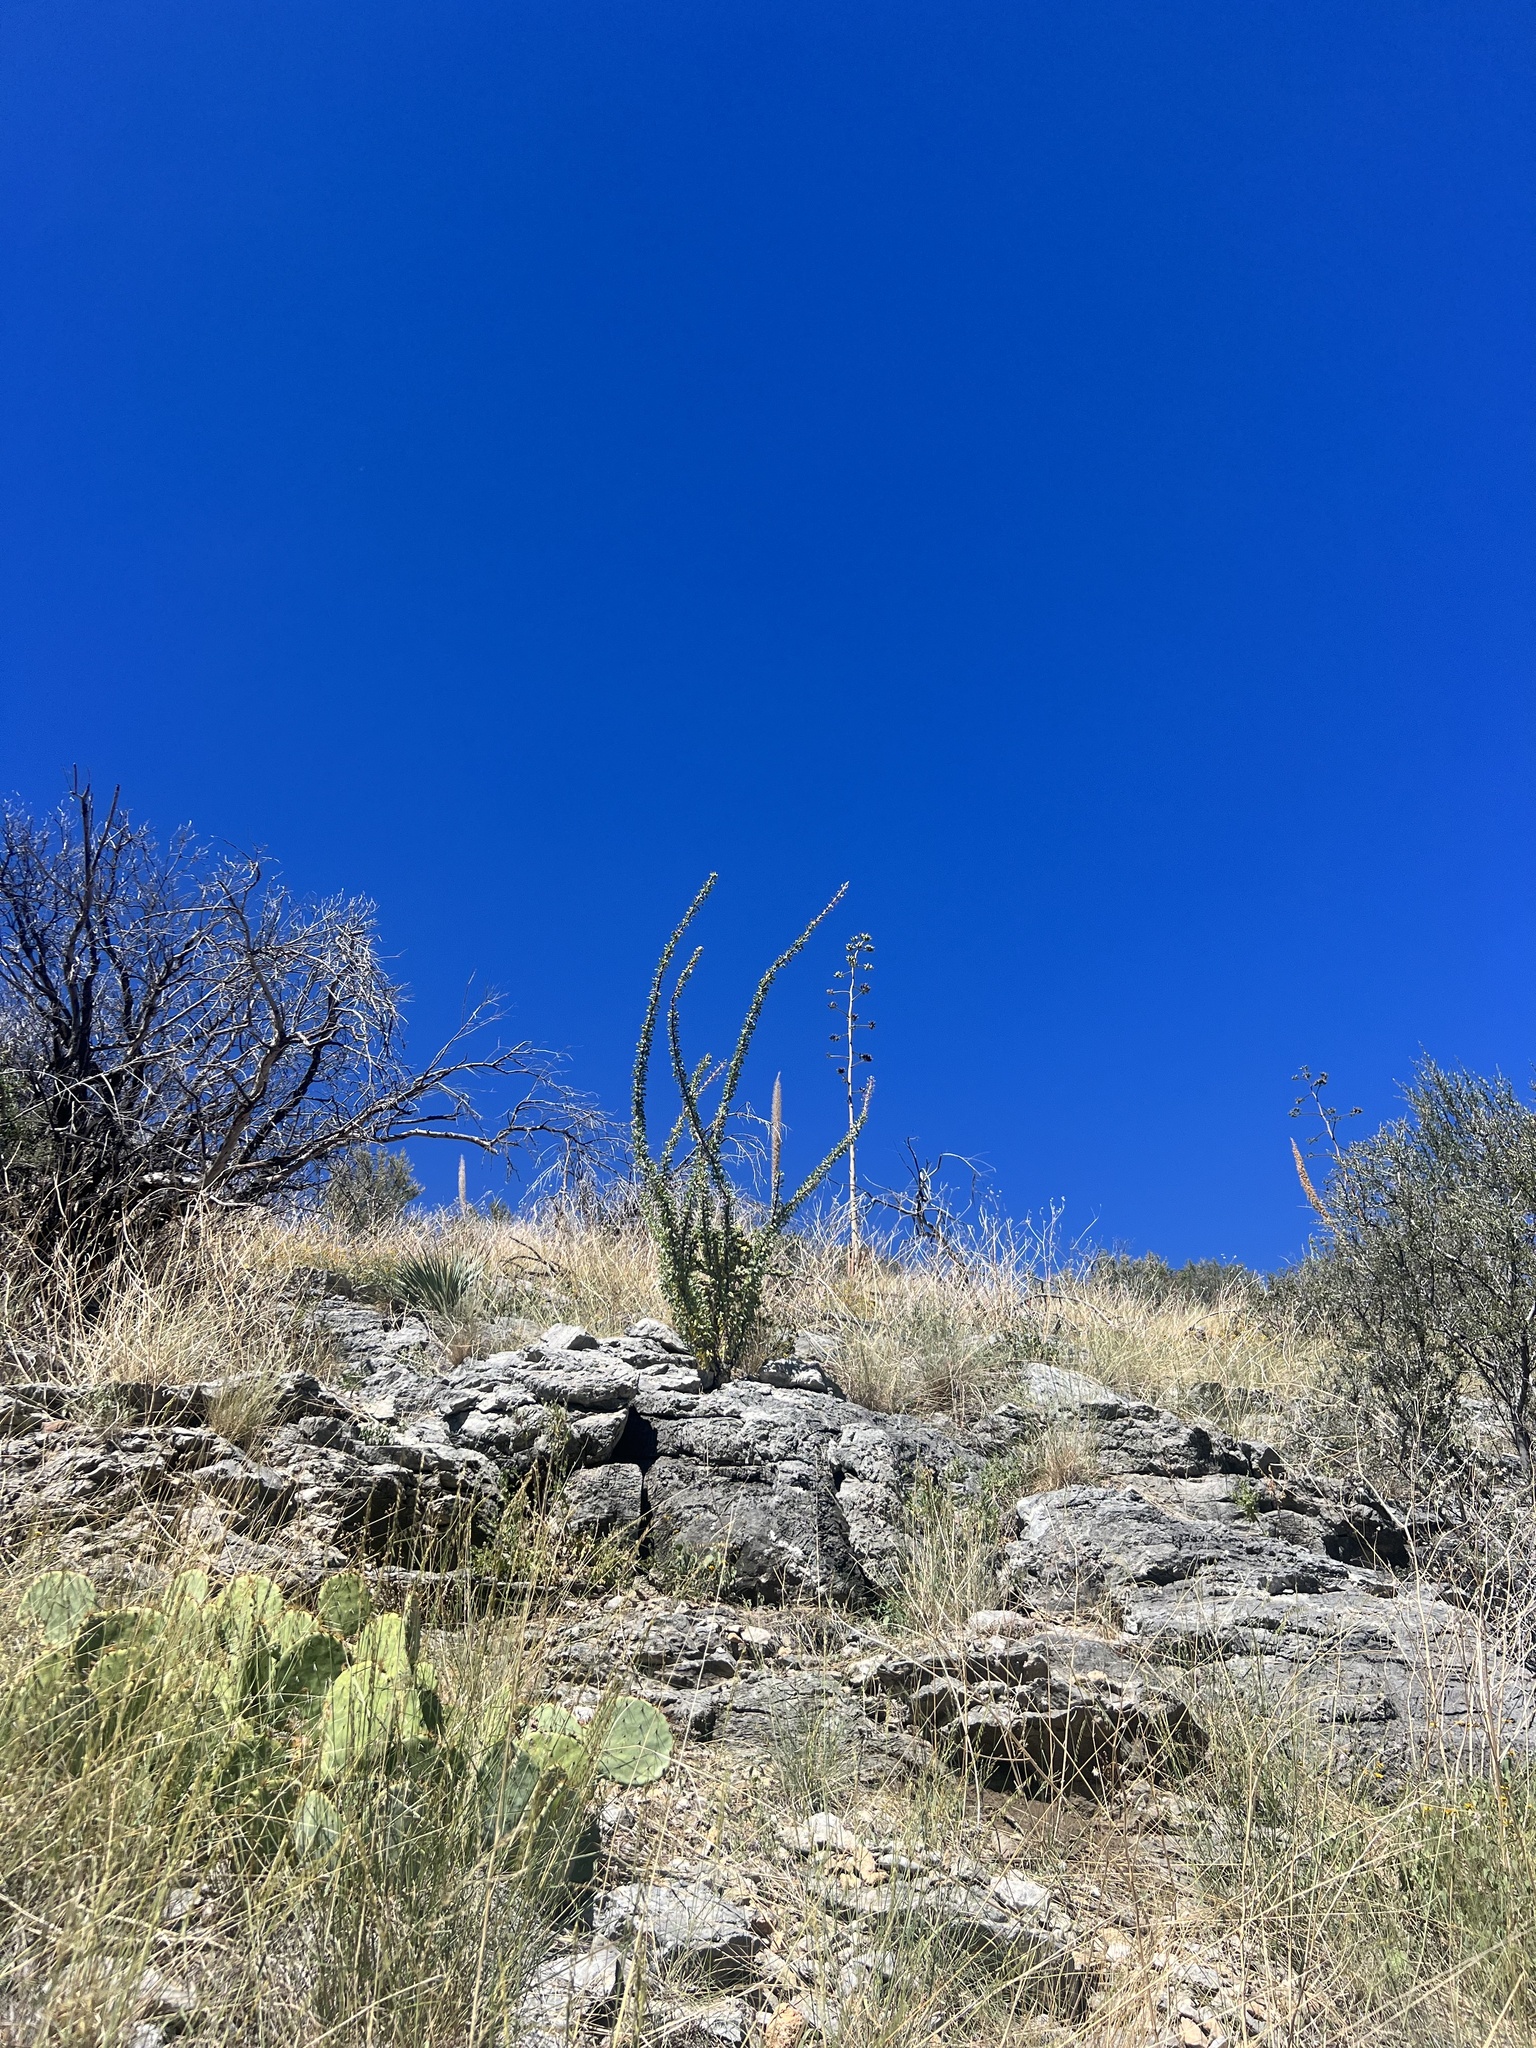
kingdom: Plantae
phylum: Tracheophyta
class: Magnoliopsida
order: Ericales
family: Fouquieriaceae
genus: Fouquieria
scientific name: Fouquieria splendens
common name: Vine-cactus
